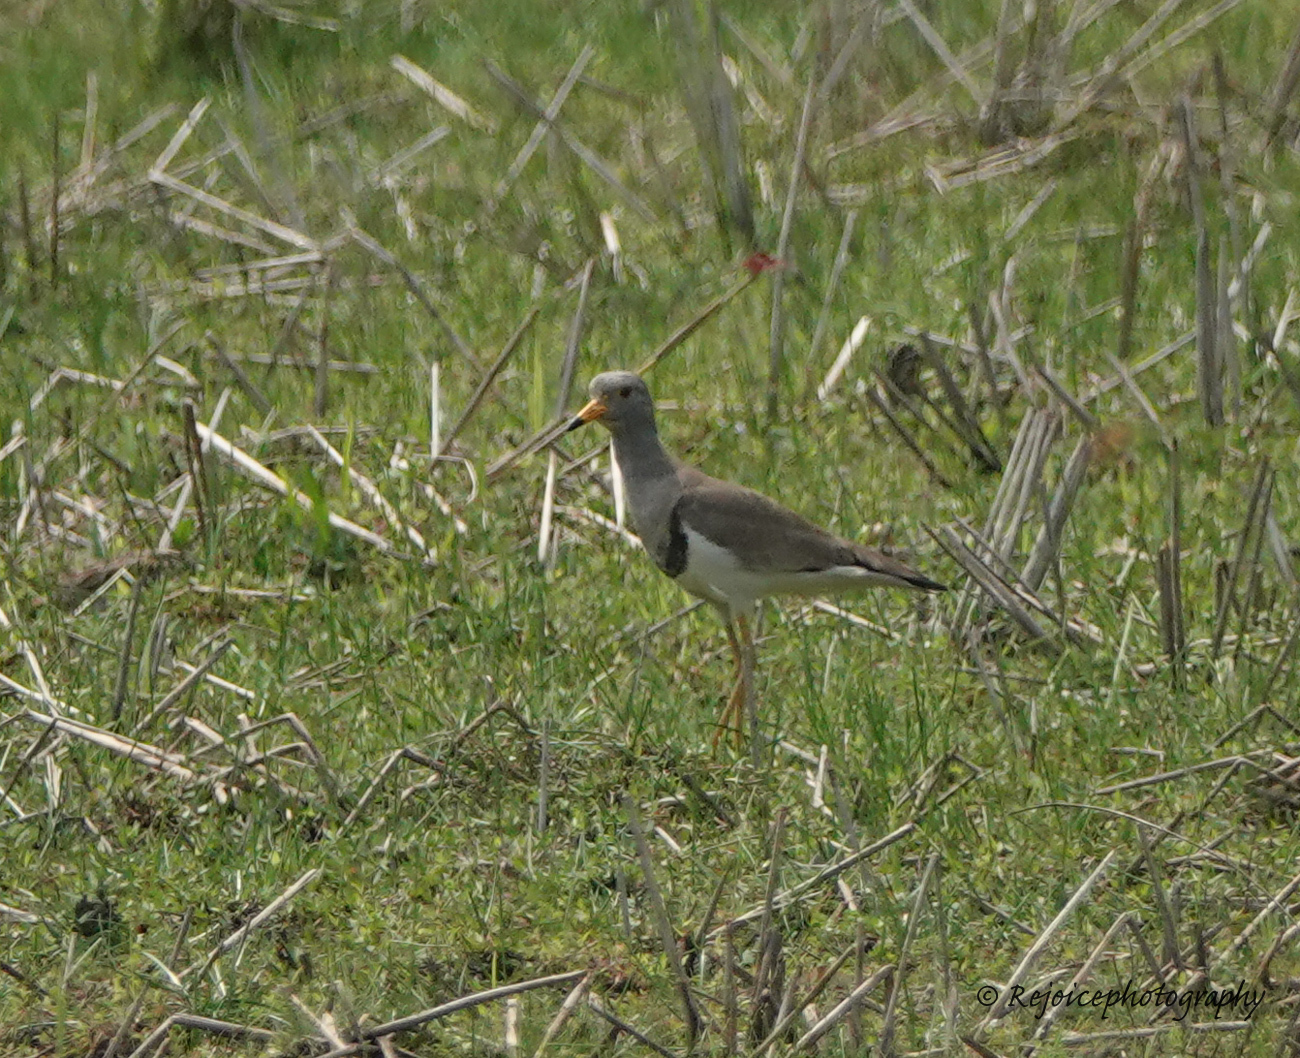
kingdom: Animalia
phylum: Chordata
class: Aves
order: Charadriiformes
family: Charadriidae
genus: Vanellus
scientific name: Vanellus cinereus
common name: Grey-headed lapwing
